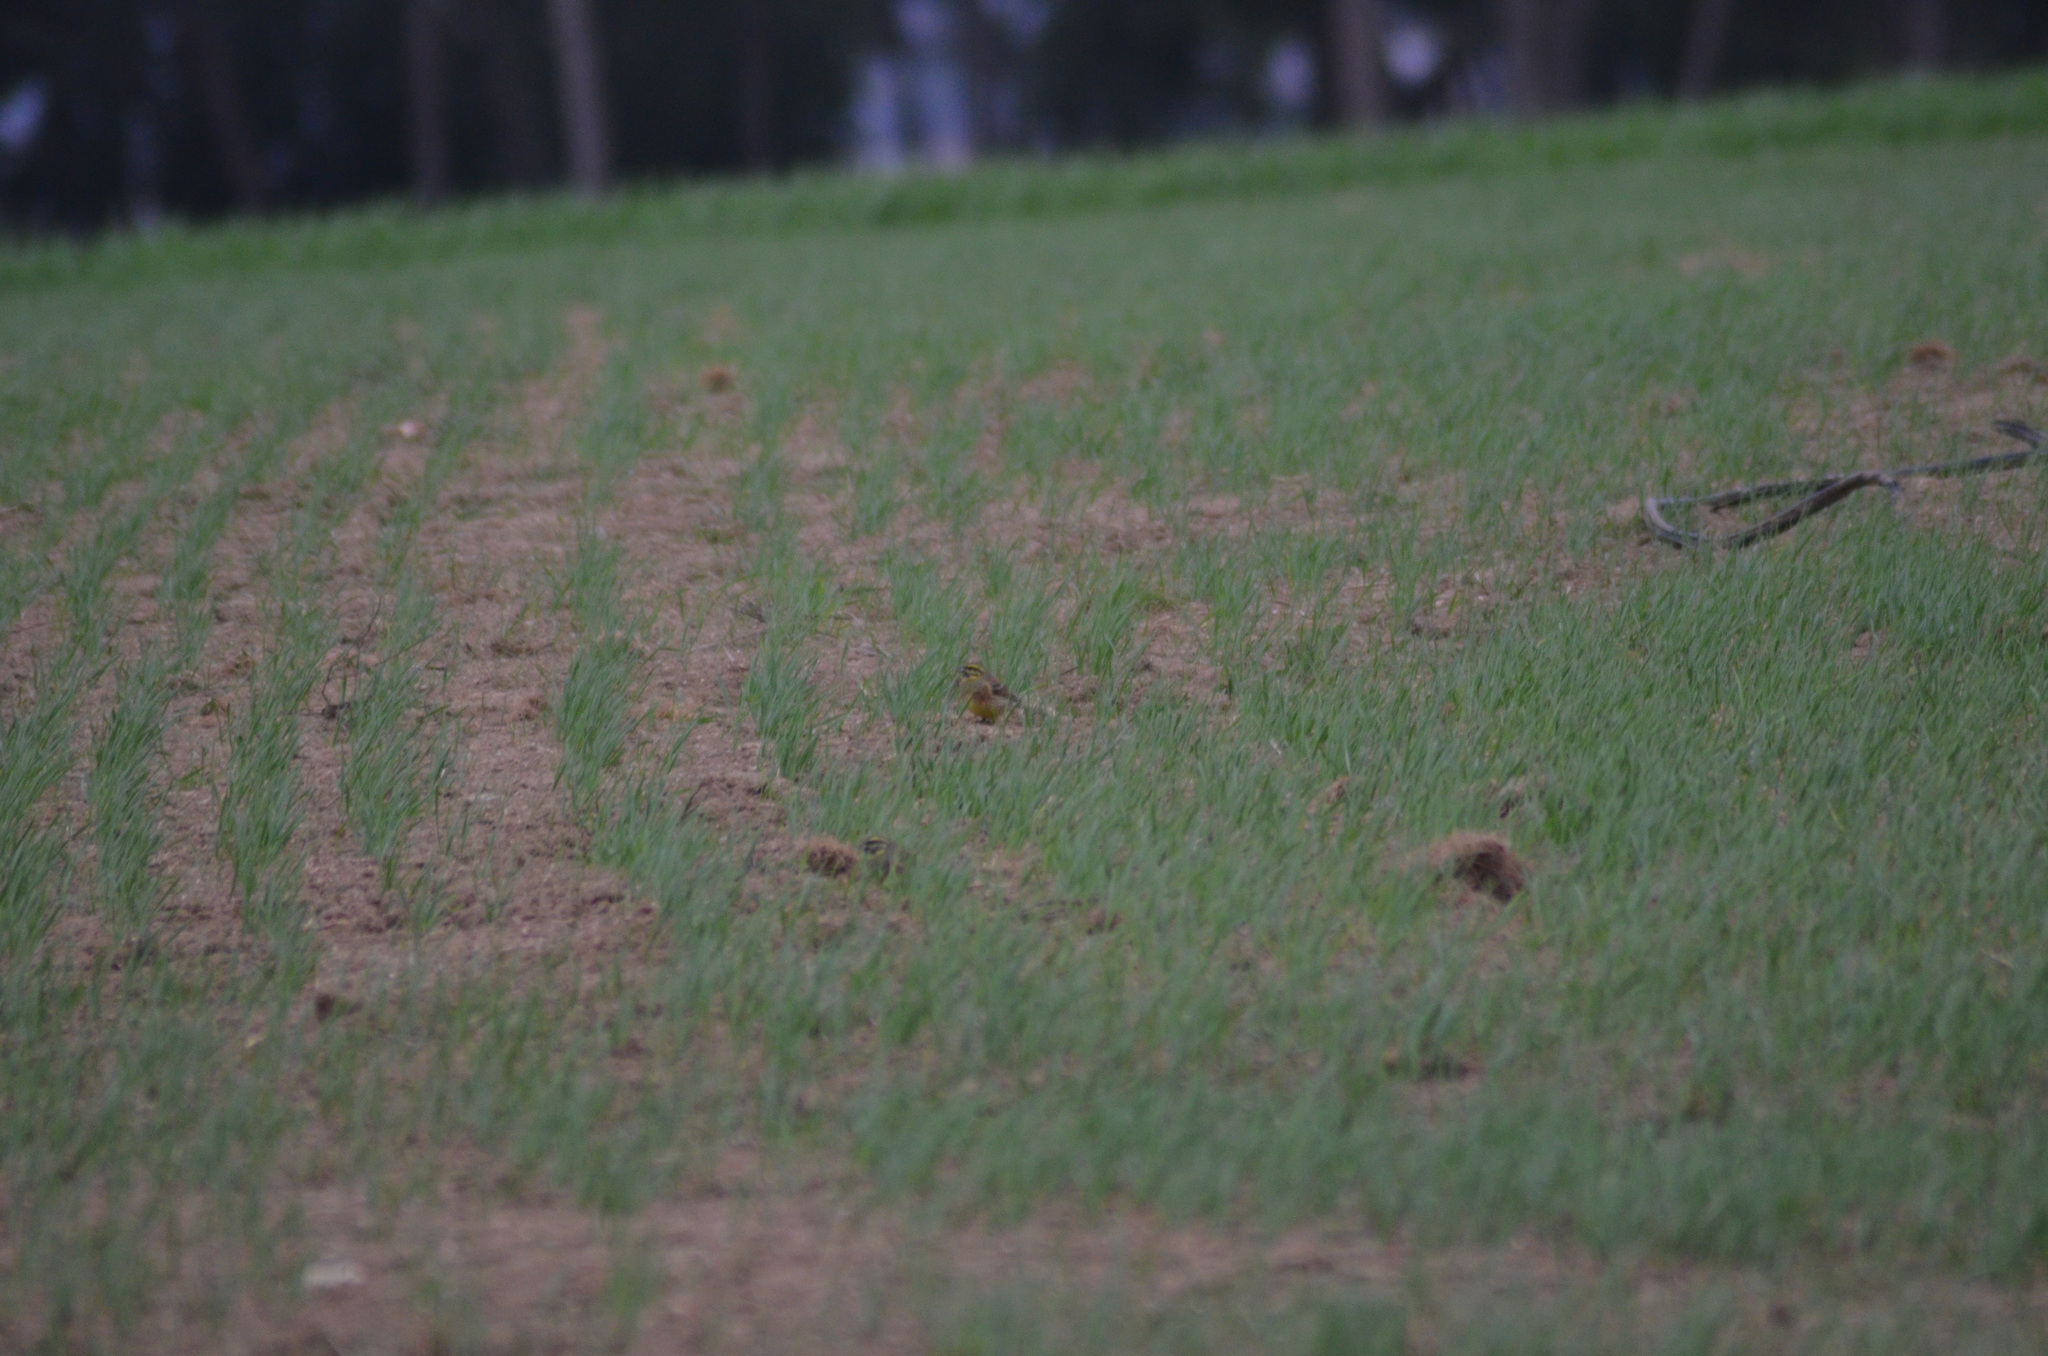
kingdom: Animalia
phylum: Chordata
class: Aves
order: Passeriformes
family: Emberizidae
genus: Emberiza
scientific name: Emberiza cirlus
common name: Cirl bunting
